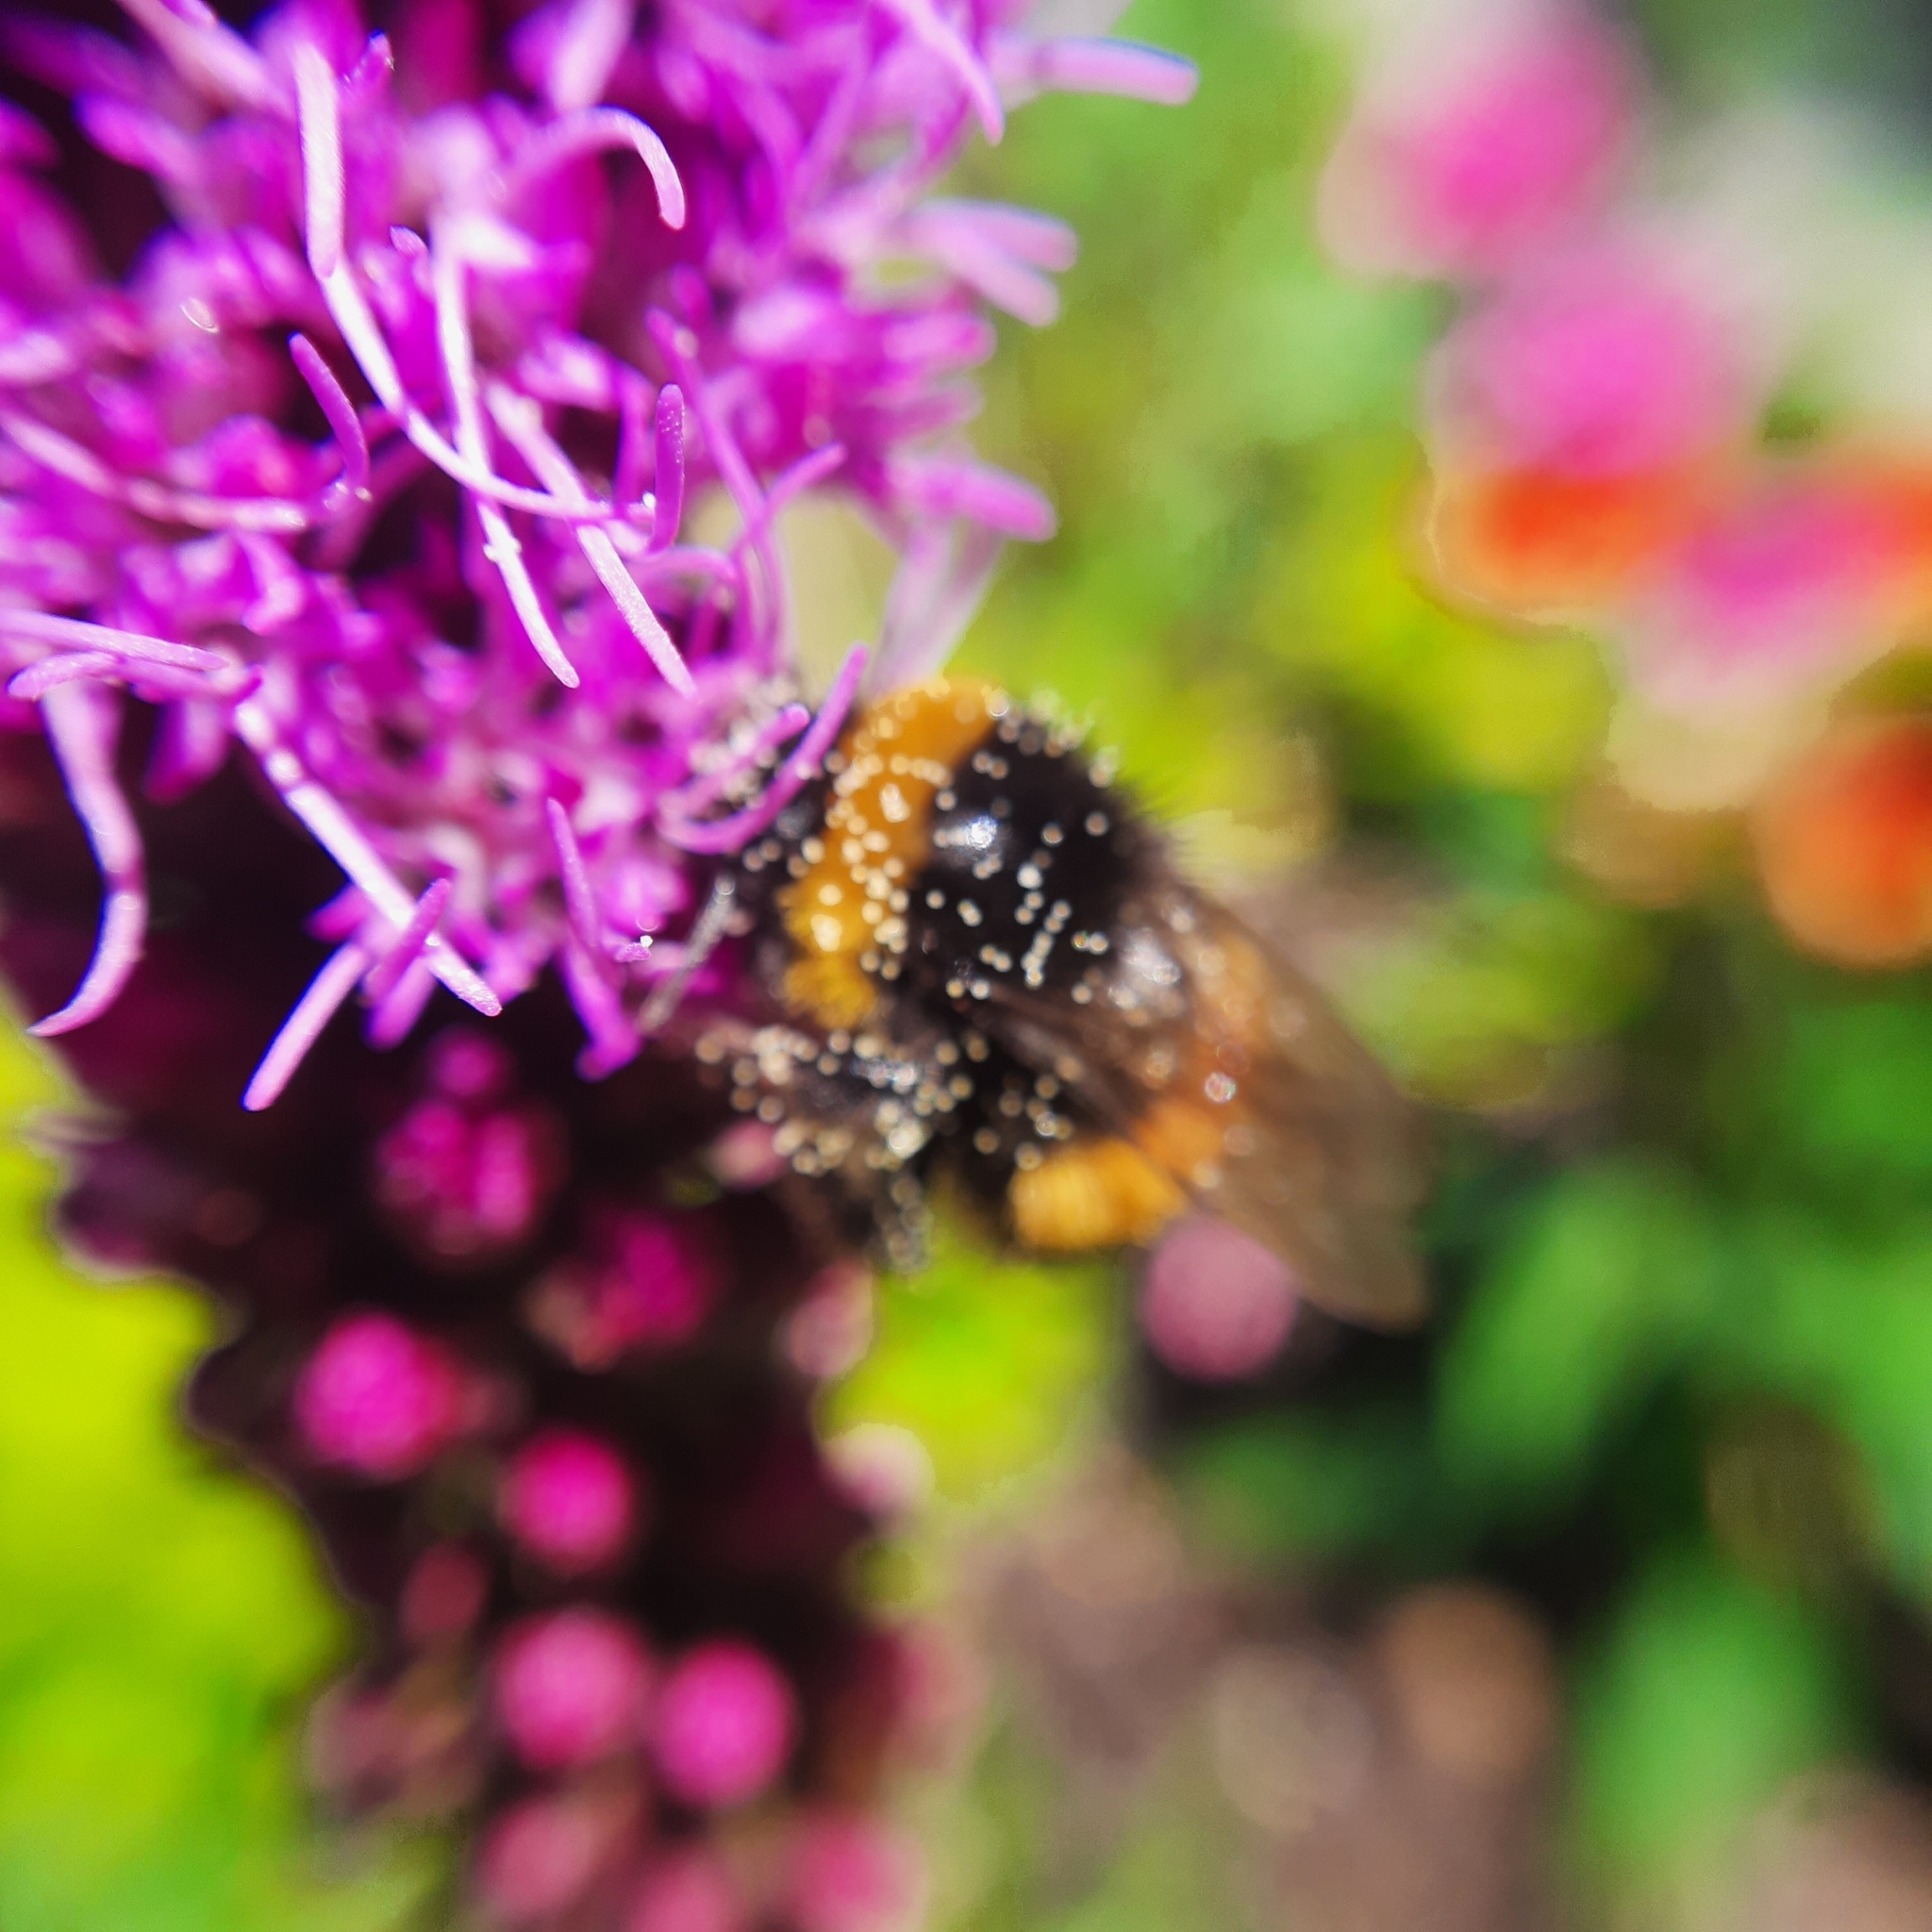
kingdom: Animalia
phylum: Arthropoda
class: Insecta
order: Hymenoptera
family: Apidae
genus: Bombus
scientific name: Bombus
